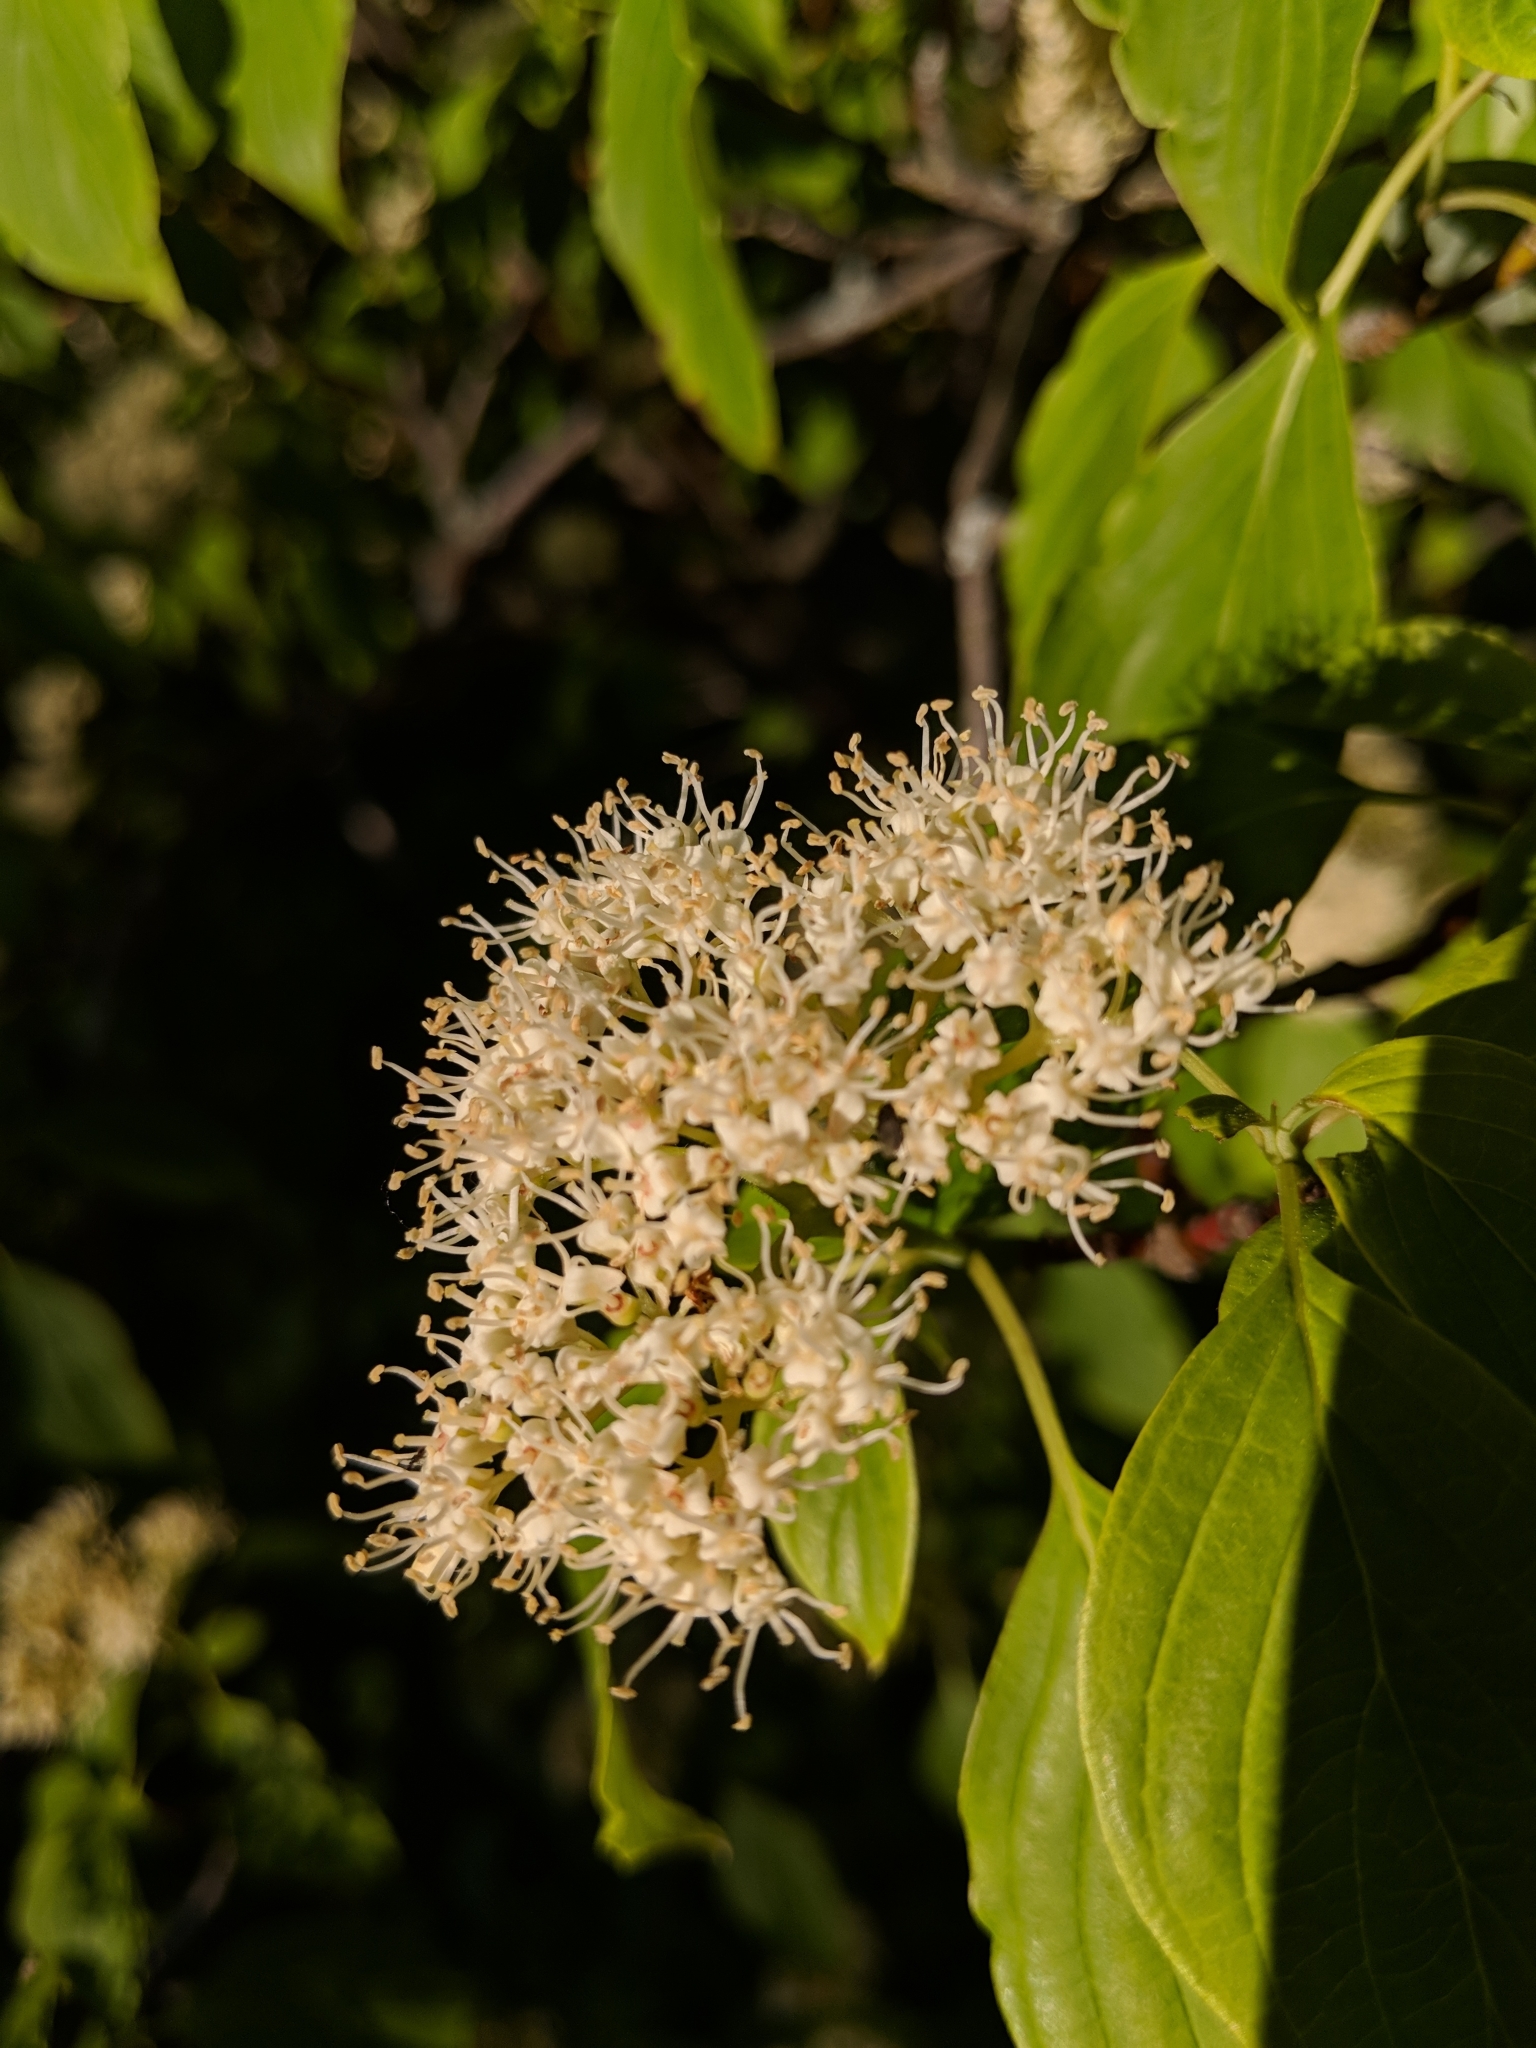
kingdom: Plantae
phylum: Tracheophyta
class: Magnoliopsida
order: Cornales
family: Cornaceae
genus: Cornus
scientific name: Cornus alternifolia
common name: Pagoda dogwood
